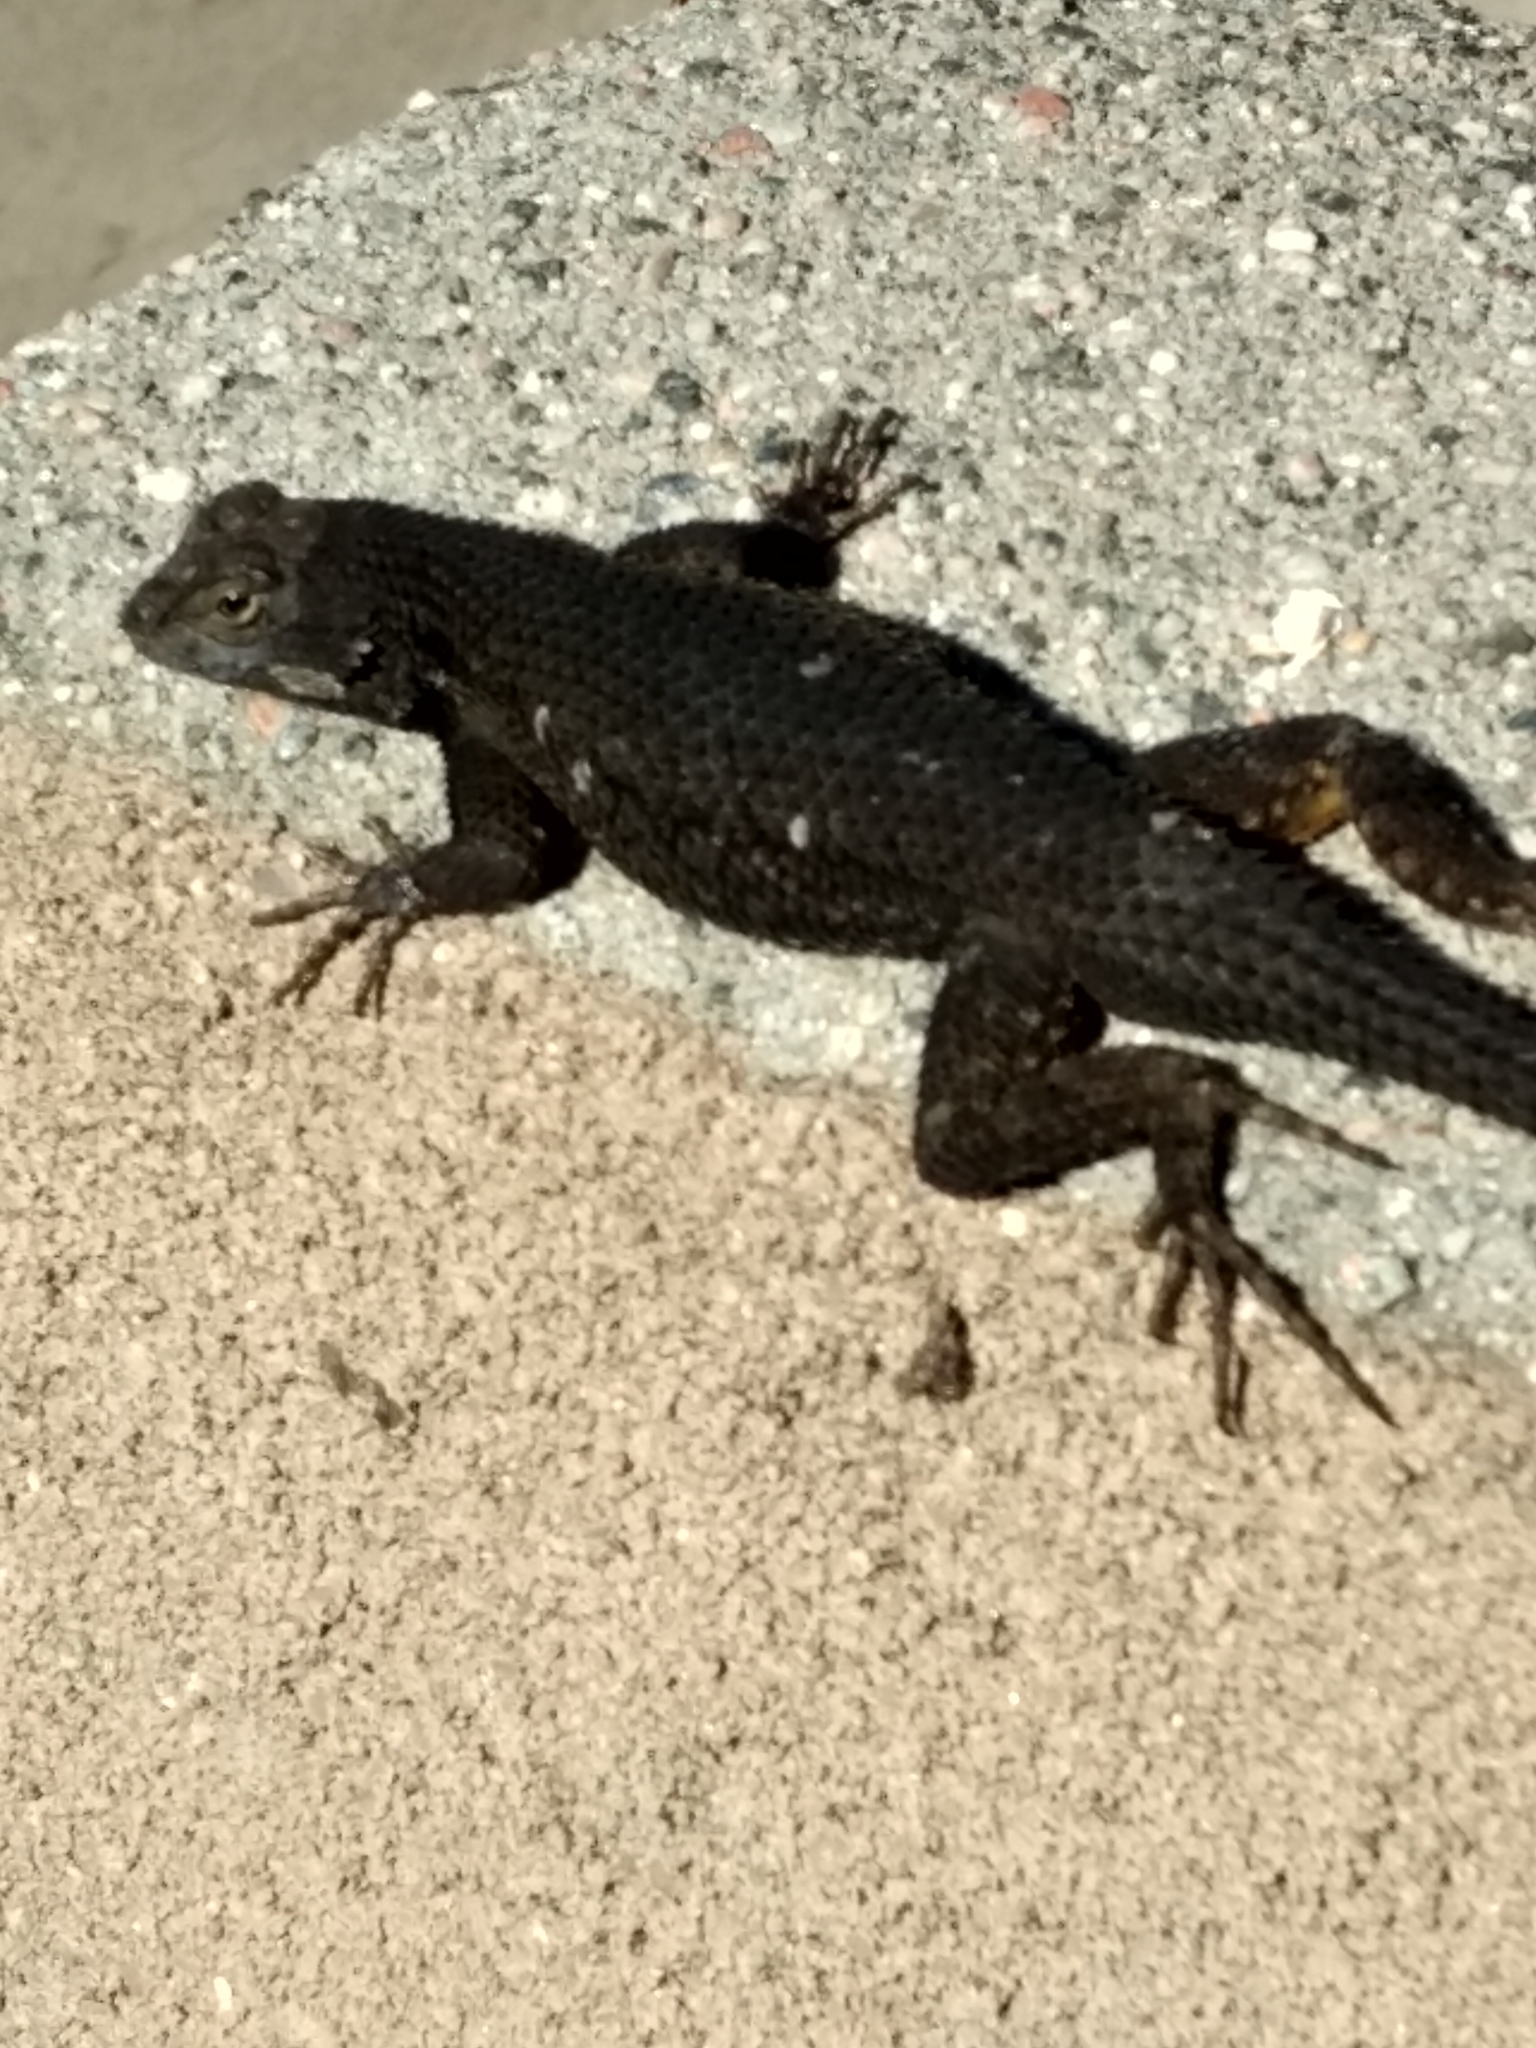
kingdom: Animalia
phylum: Chordata
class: Squamata
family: Phrynosomatidae
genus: Sceloporus
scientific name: Sceloporus occidentalis
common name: Western fence lizard
